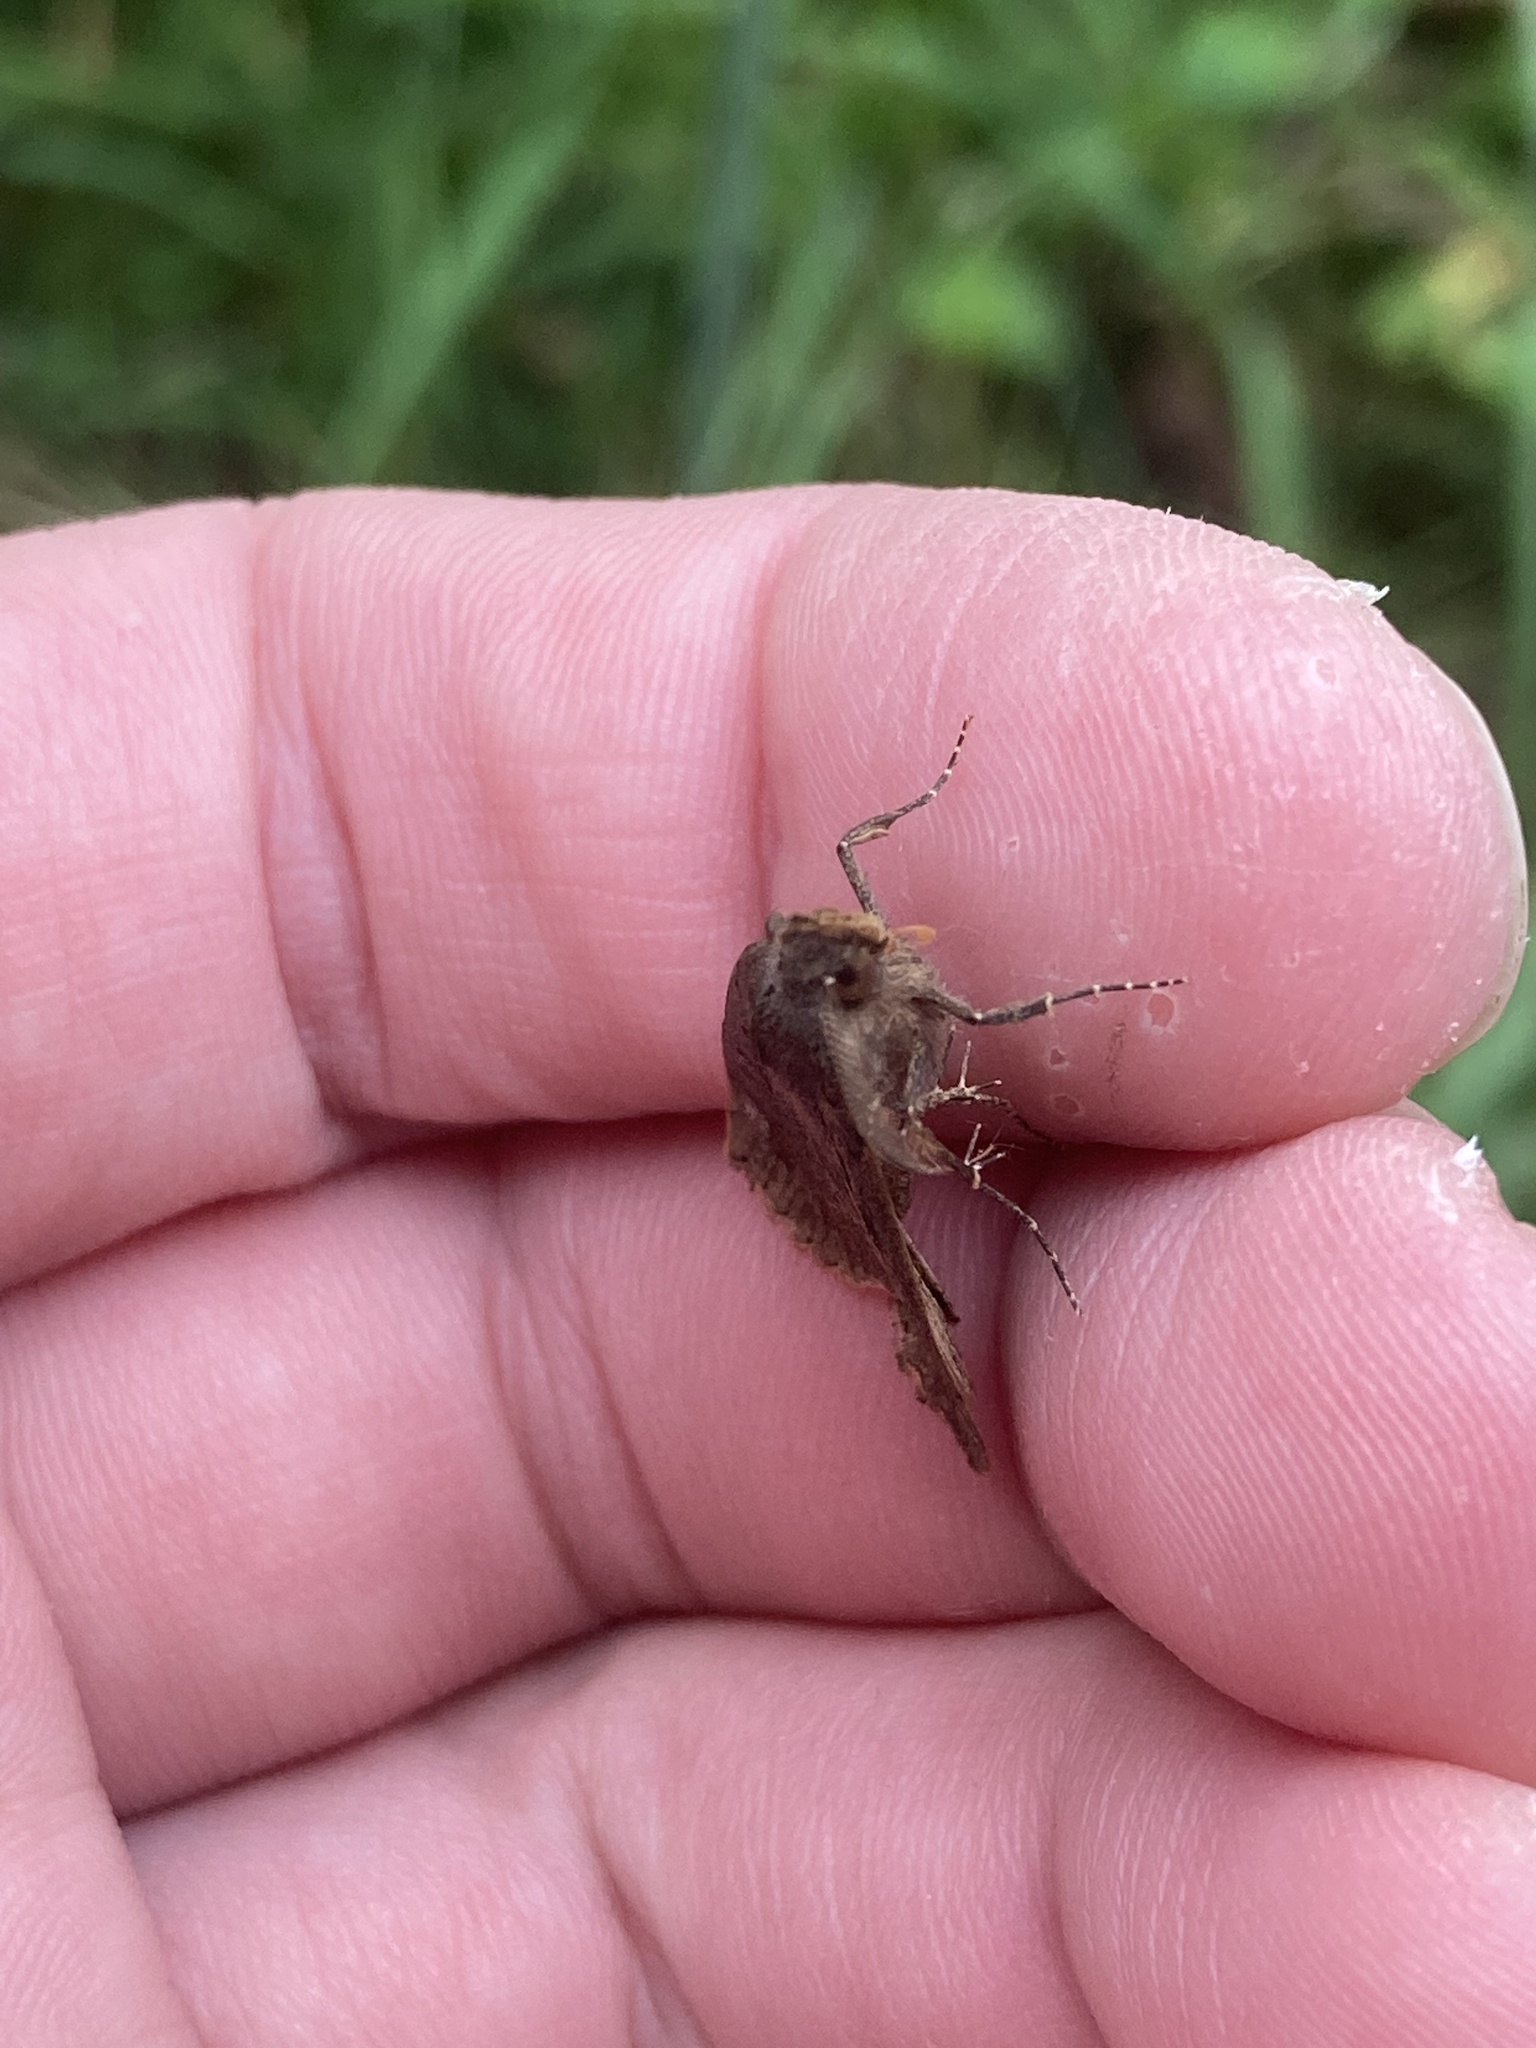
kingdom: Animalia
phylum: Arthropoda
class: Insecta
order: Lepidoptera
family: Erebidae
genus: Rhapsa
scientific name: Rhapsa scotosialis
